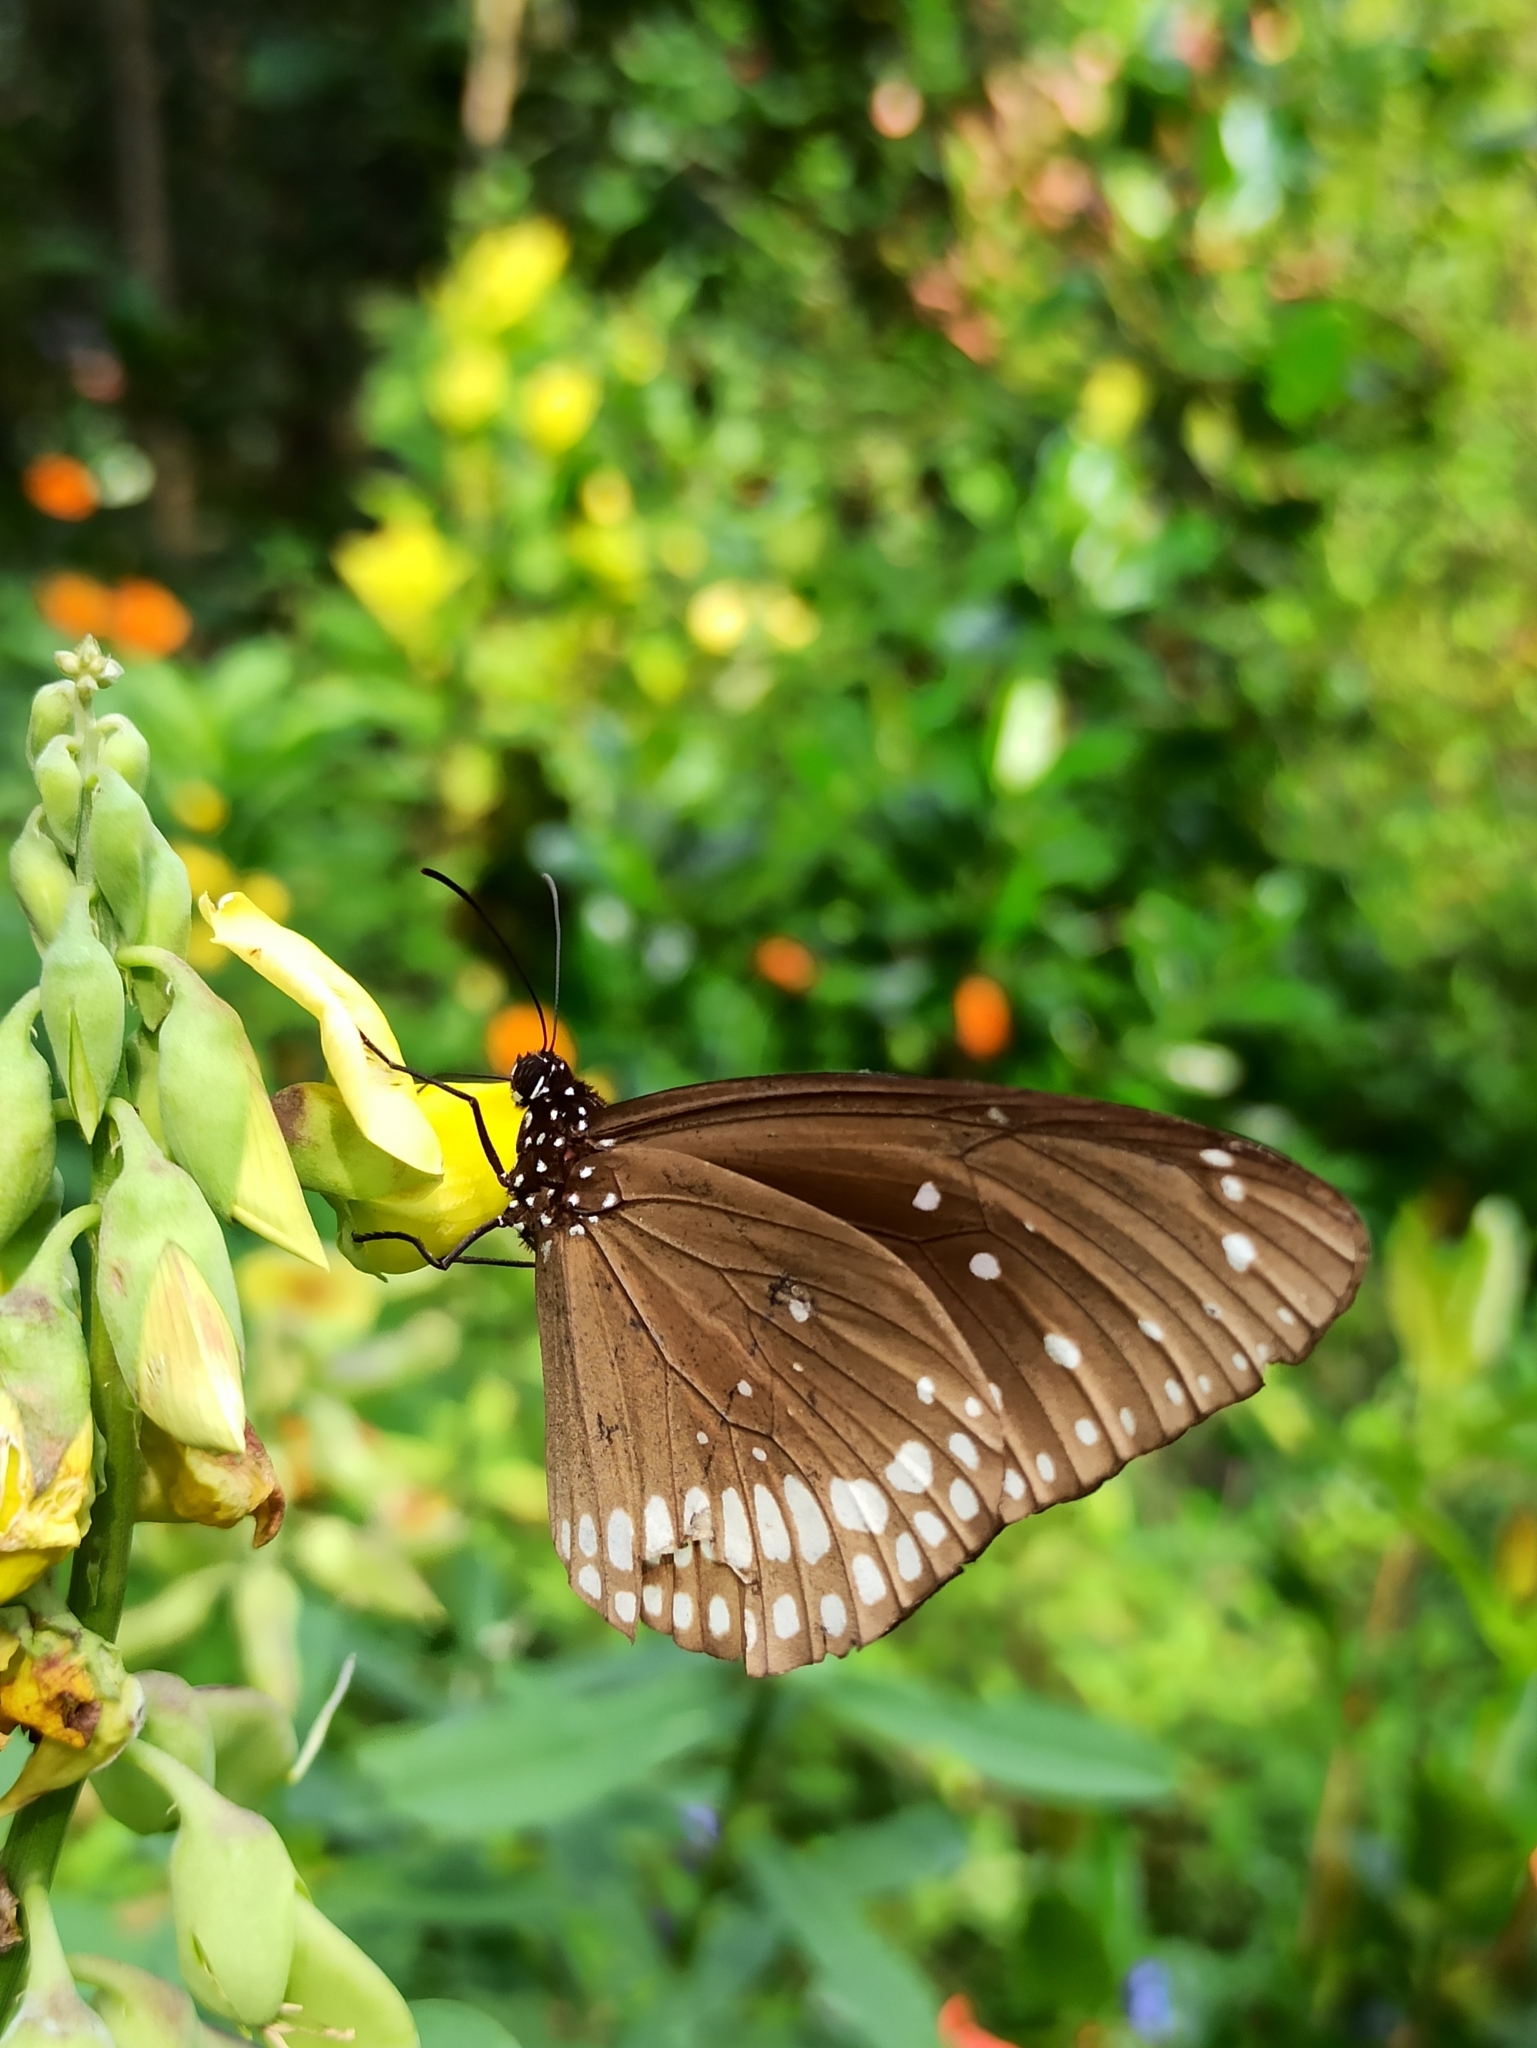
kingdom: Animalia
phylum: Arthropoda
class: Insecta
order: Lepidoptera
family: Nymphalidae
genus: Euploea
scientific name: Euploea core
